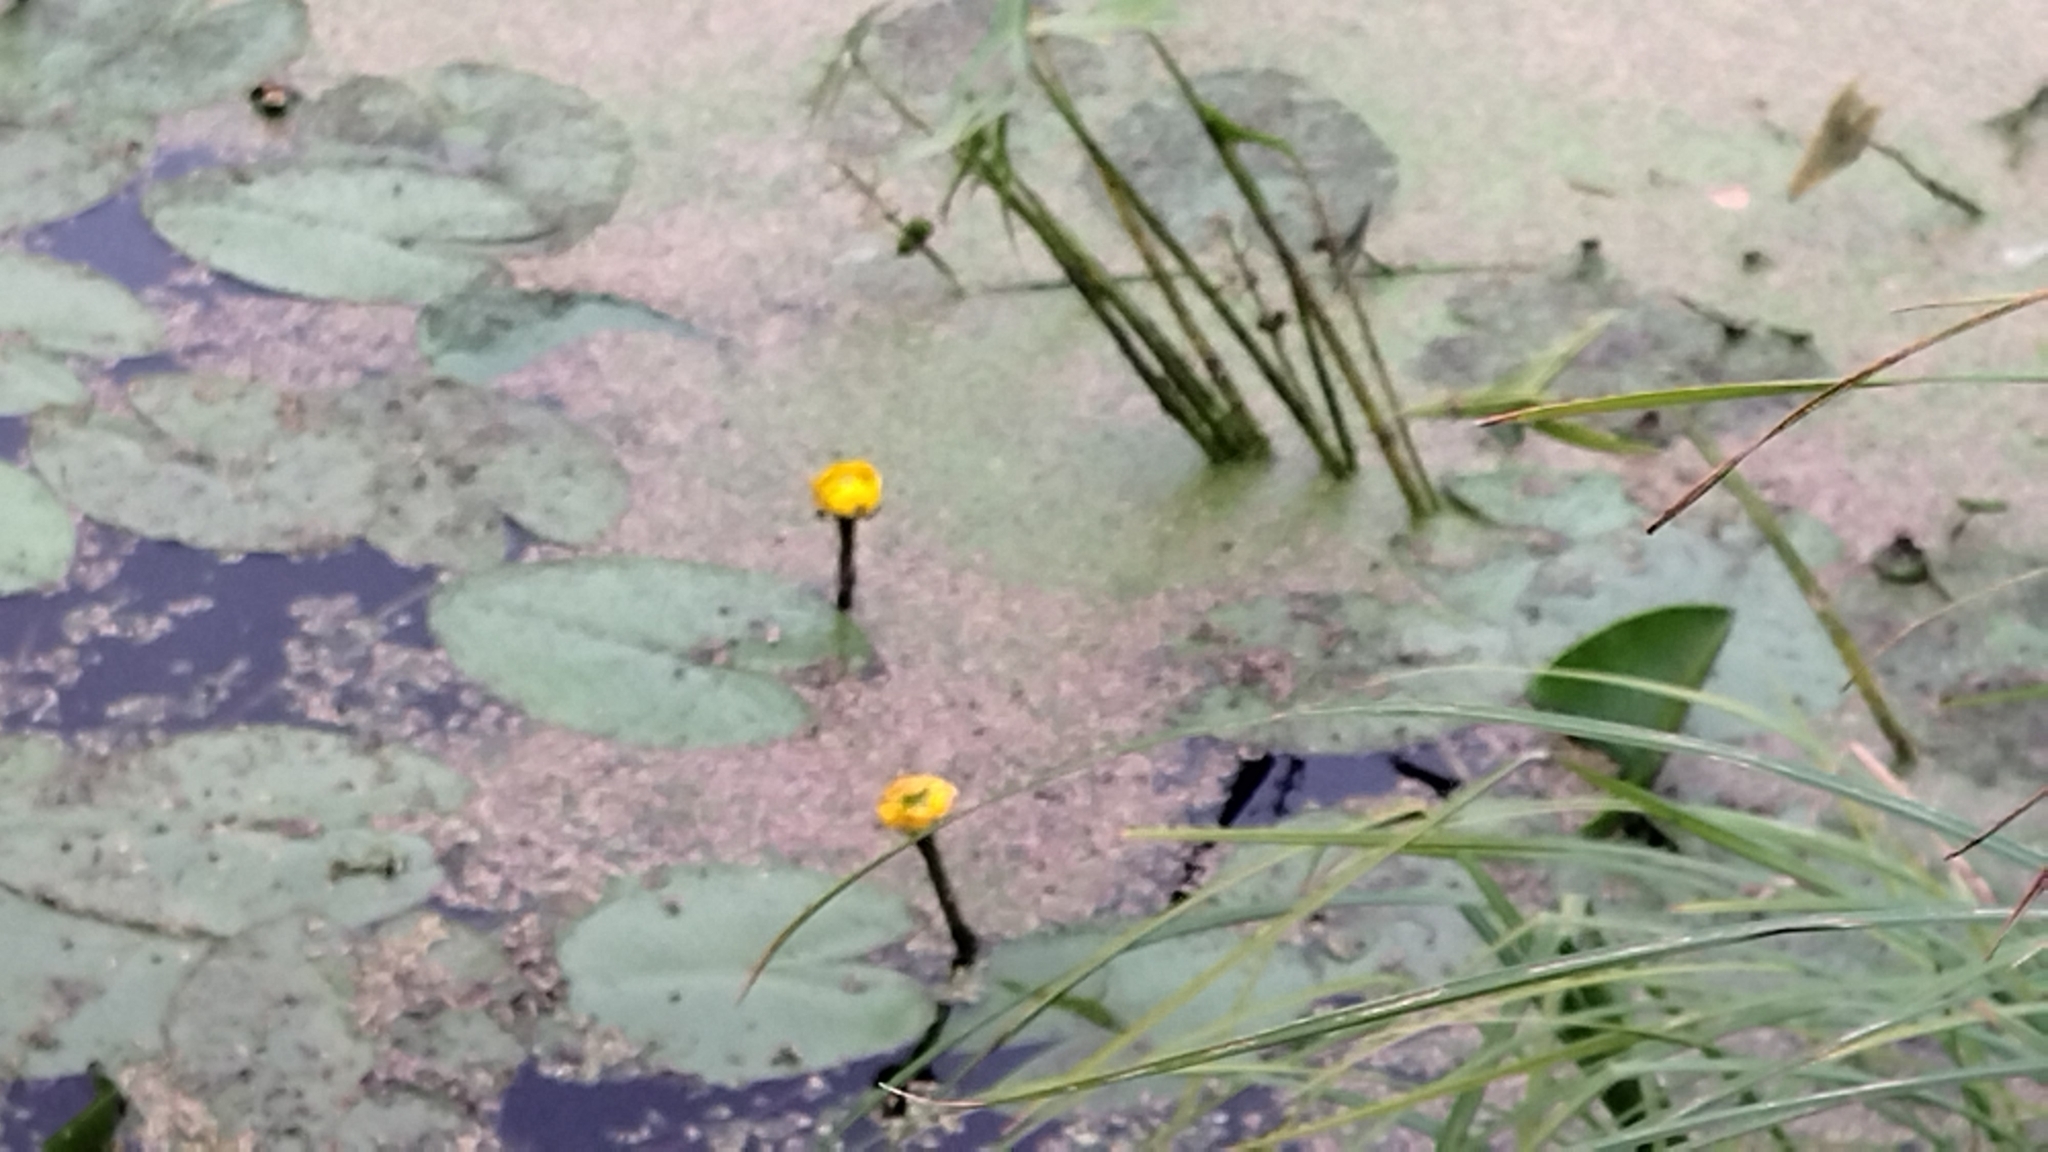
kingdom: Plantae
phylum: Tracheophyta
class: Magnoliopsida
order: Nymphaeales
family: Nymphaeaceae
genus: Nuphar
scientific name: Nuphar lutea
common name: Yellow water-lily
